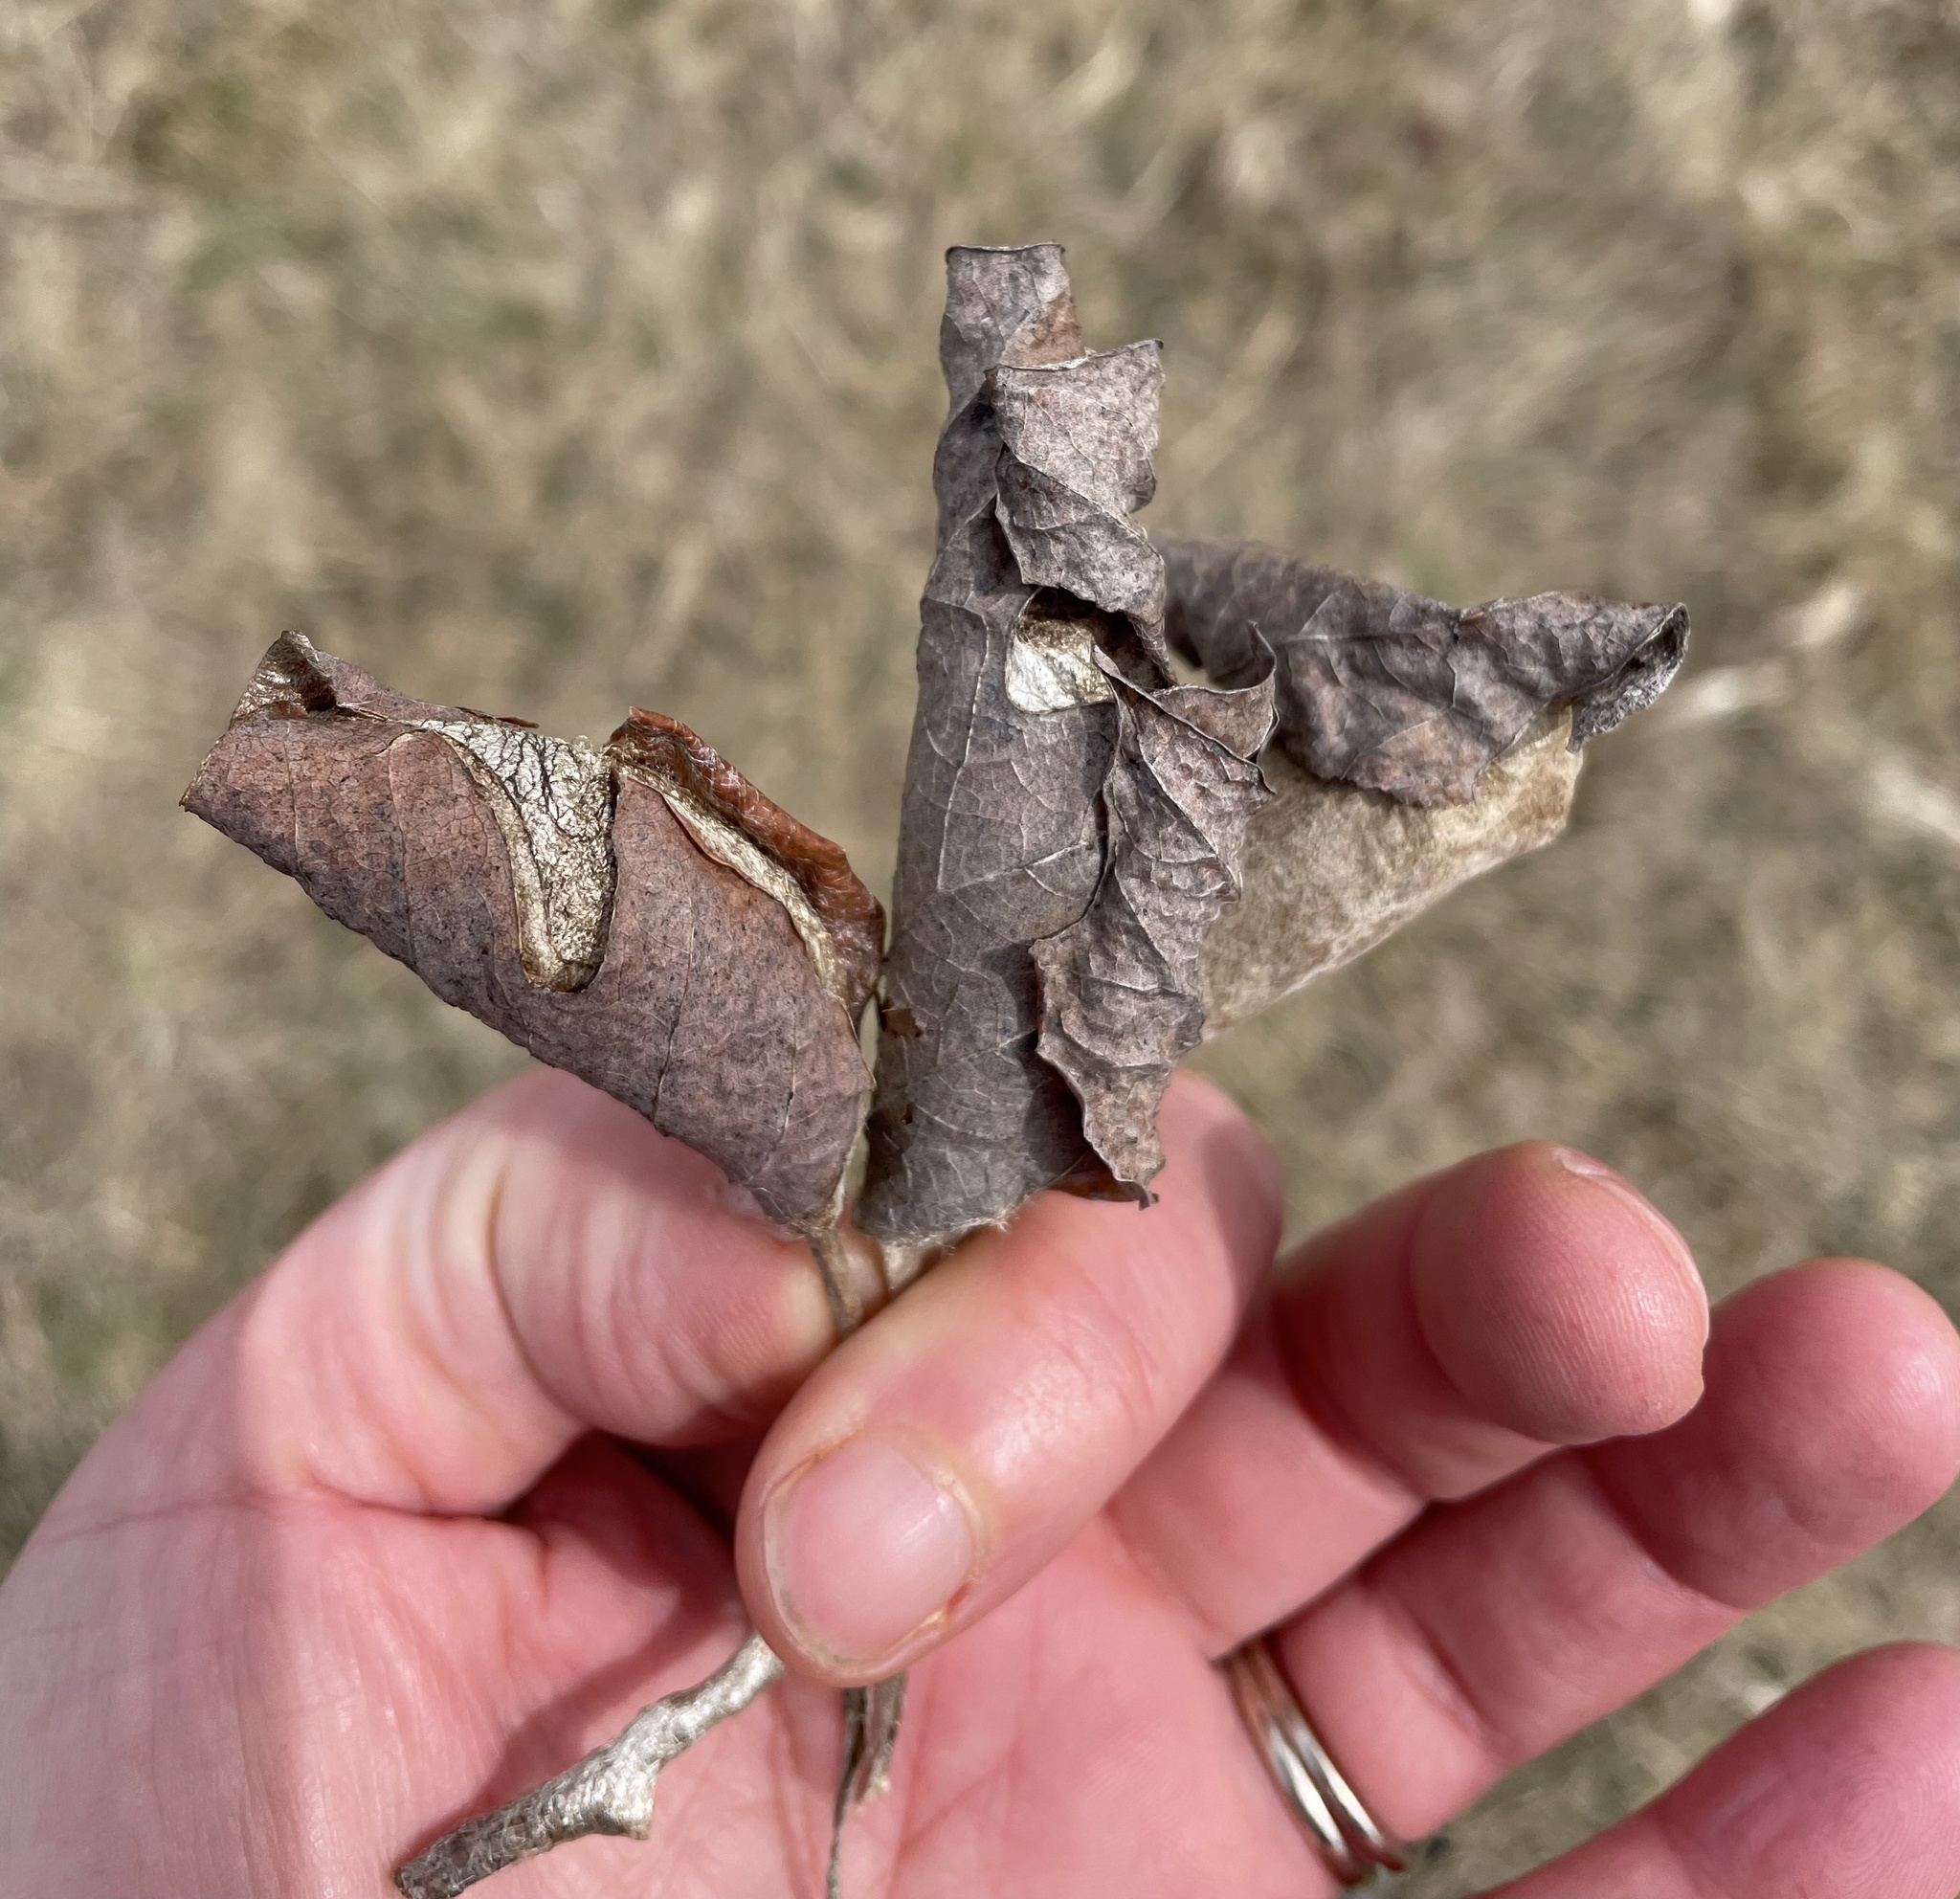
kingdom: Animalia
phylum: Arthropoda
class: Insecta
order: Lepidoptera
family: Saturniidae
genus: Callosamia
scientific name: Callosamia promethea
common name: Promethea silkmoth
